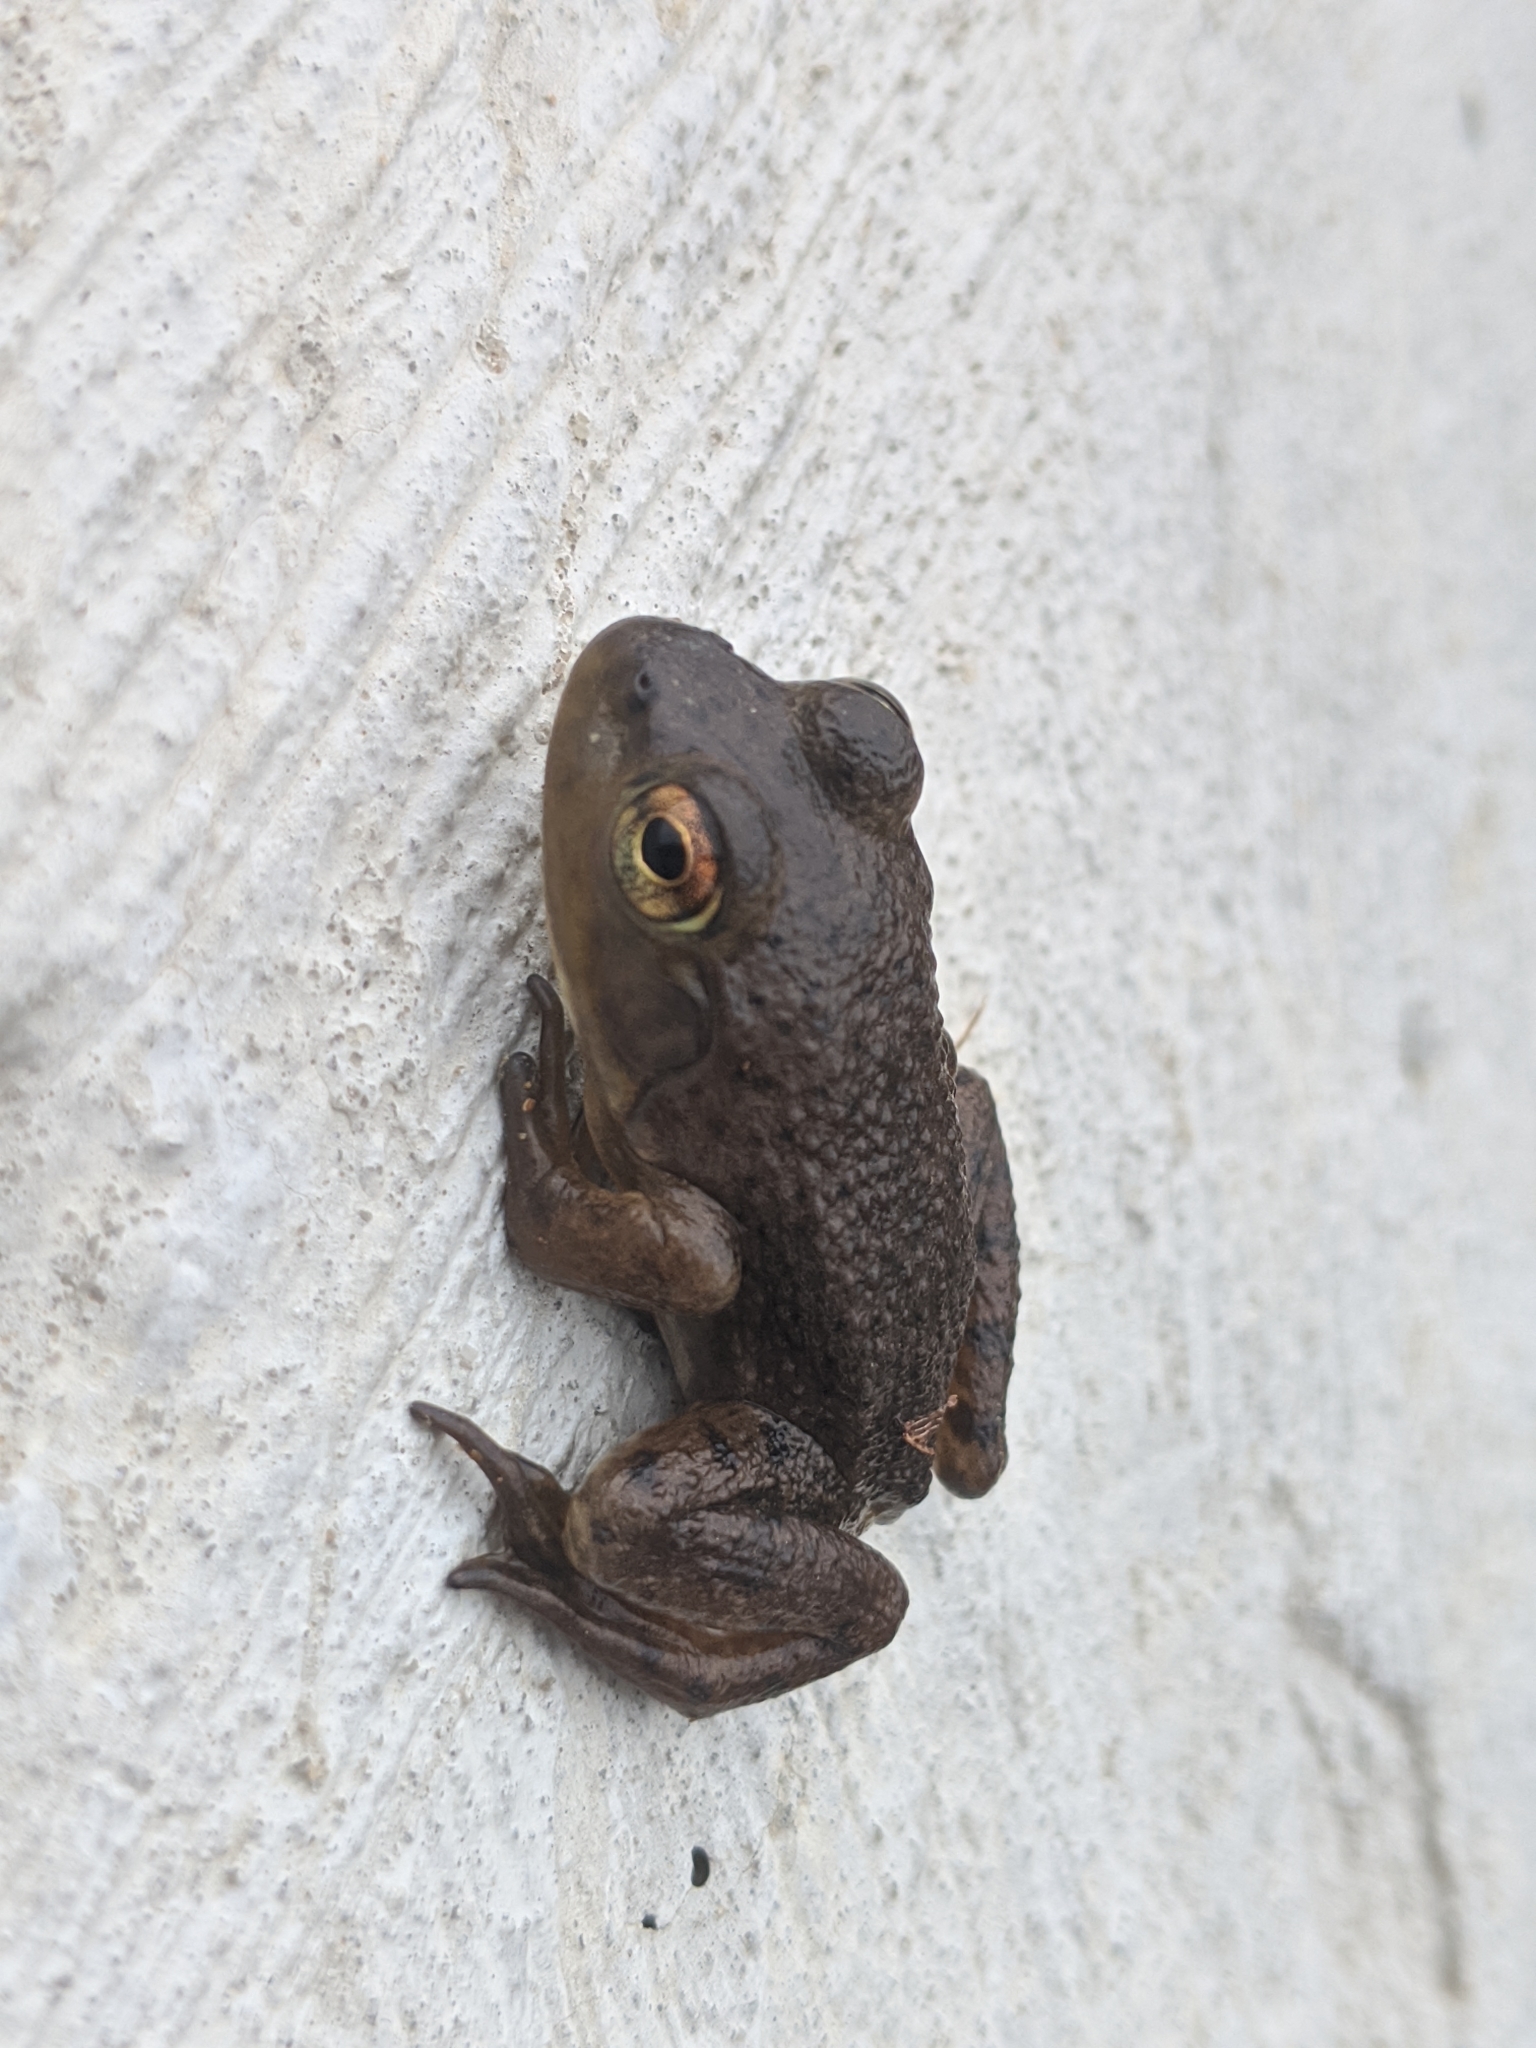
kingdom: Animalia
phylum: Chordata
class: Amphibia
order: Anura
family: Ranidae
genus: Lithobates
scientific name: Lithobates catesbeianus
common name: American bullfrog
